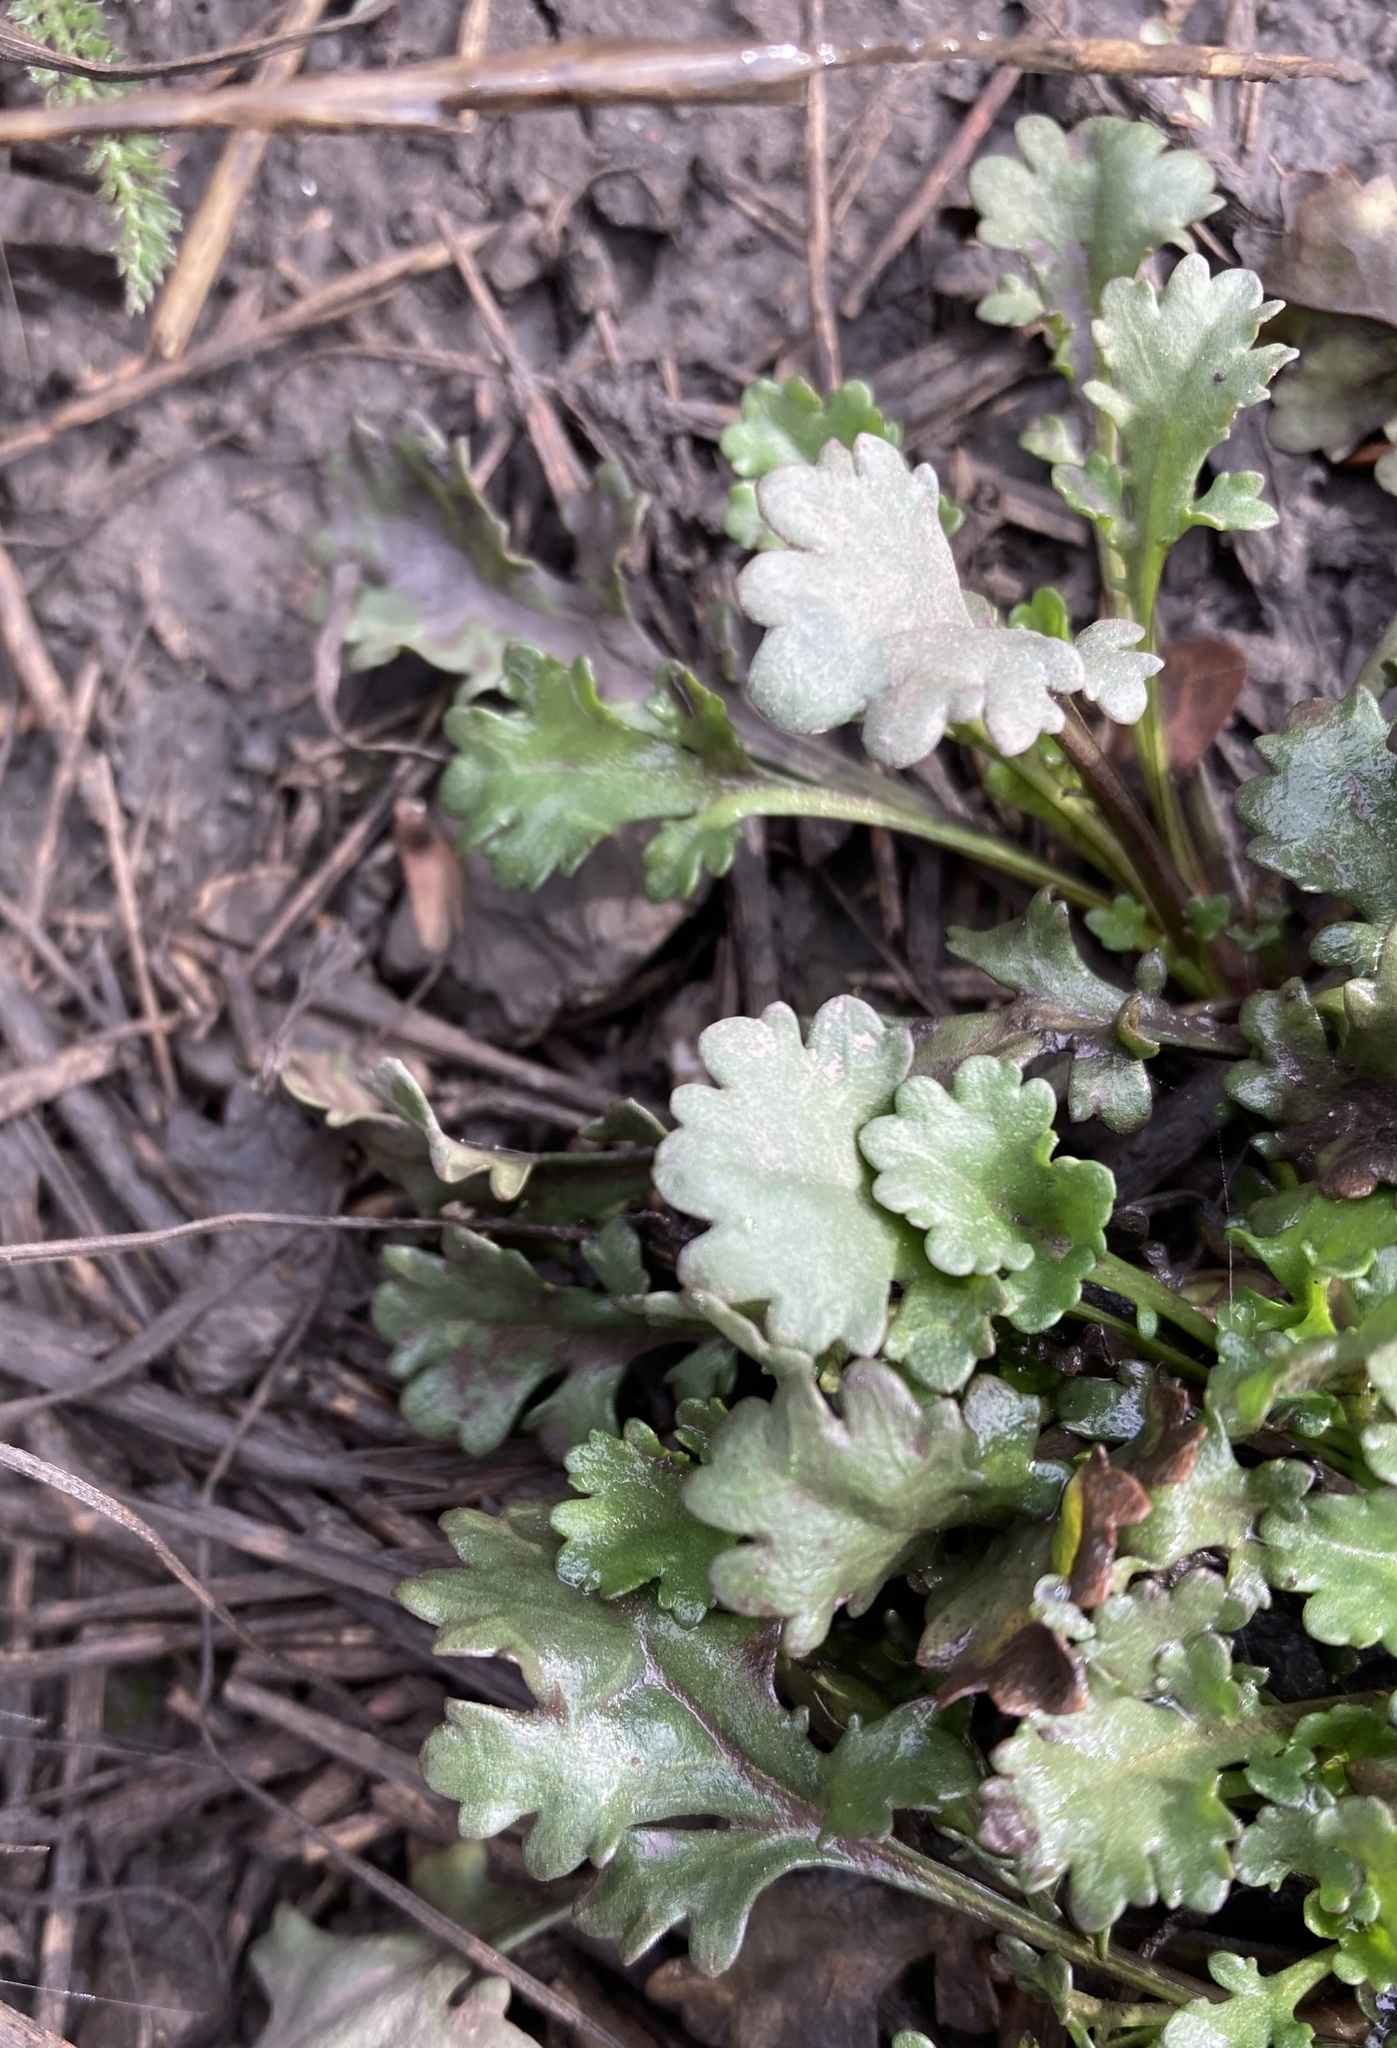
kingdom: Plantae
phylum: Tracheophyta
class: Magnoliopsida
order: Asterales
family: Asteraceae
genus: Leucanthemum
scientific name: Leucanthemum vulgare
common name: Oxeye daisy
